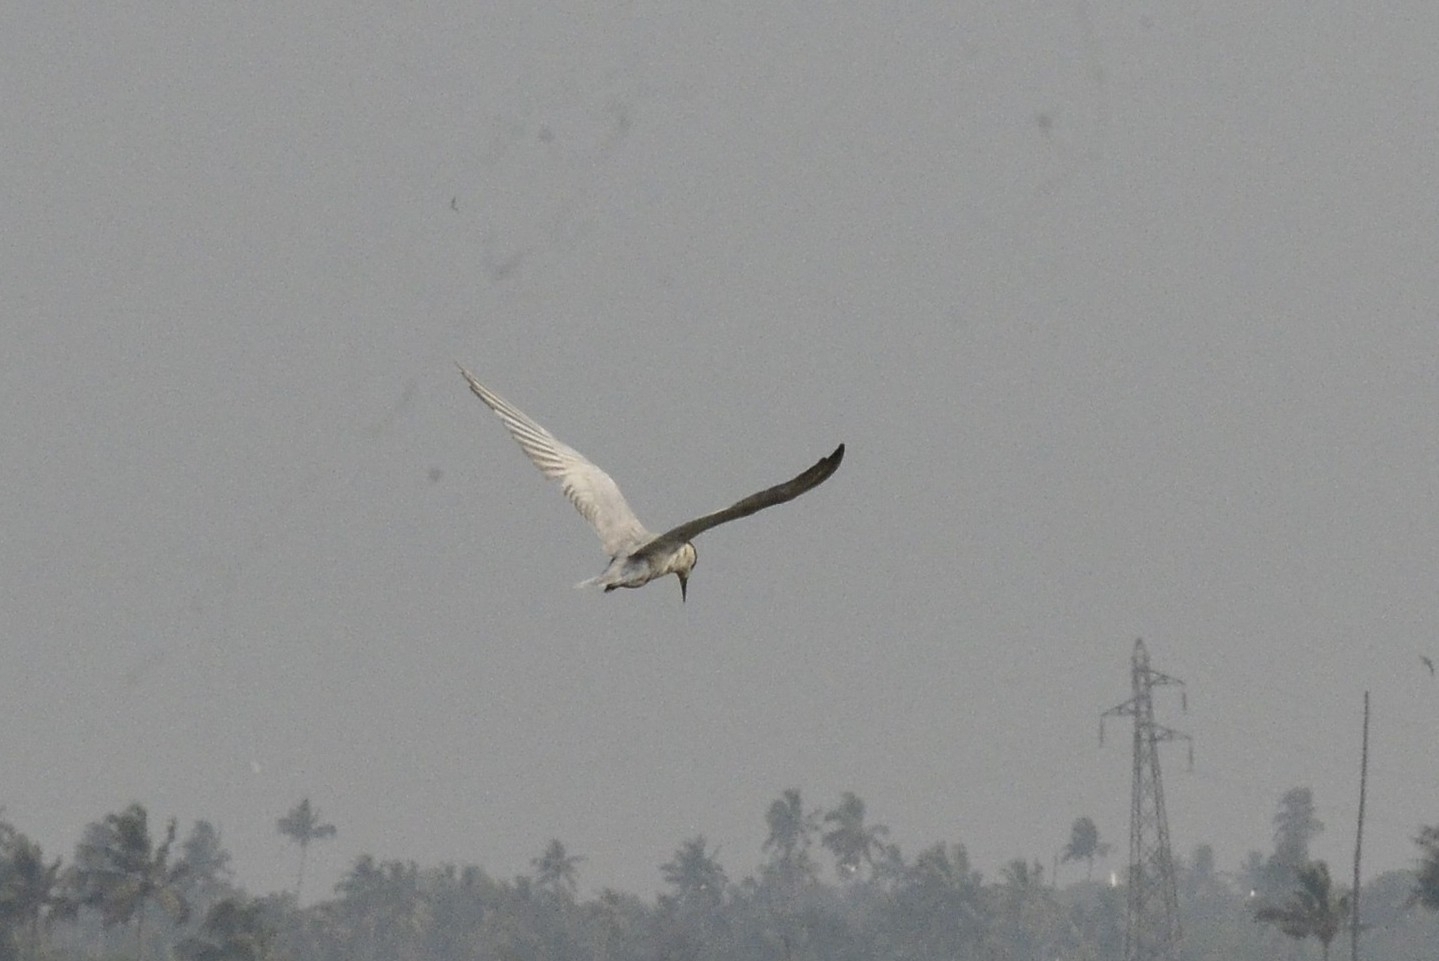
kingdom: Animalia
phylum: Chordata
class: Aves
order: Charadriiformes
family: Laridae
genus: Chlidonias
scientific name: Chlidonias hybrida
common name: Whiskered tern
